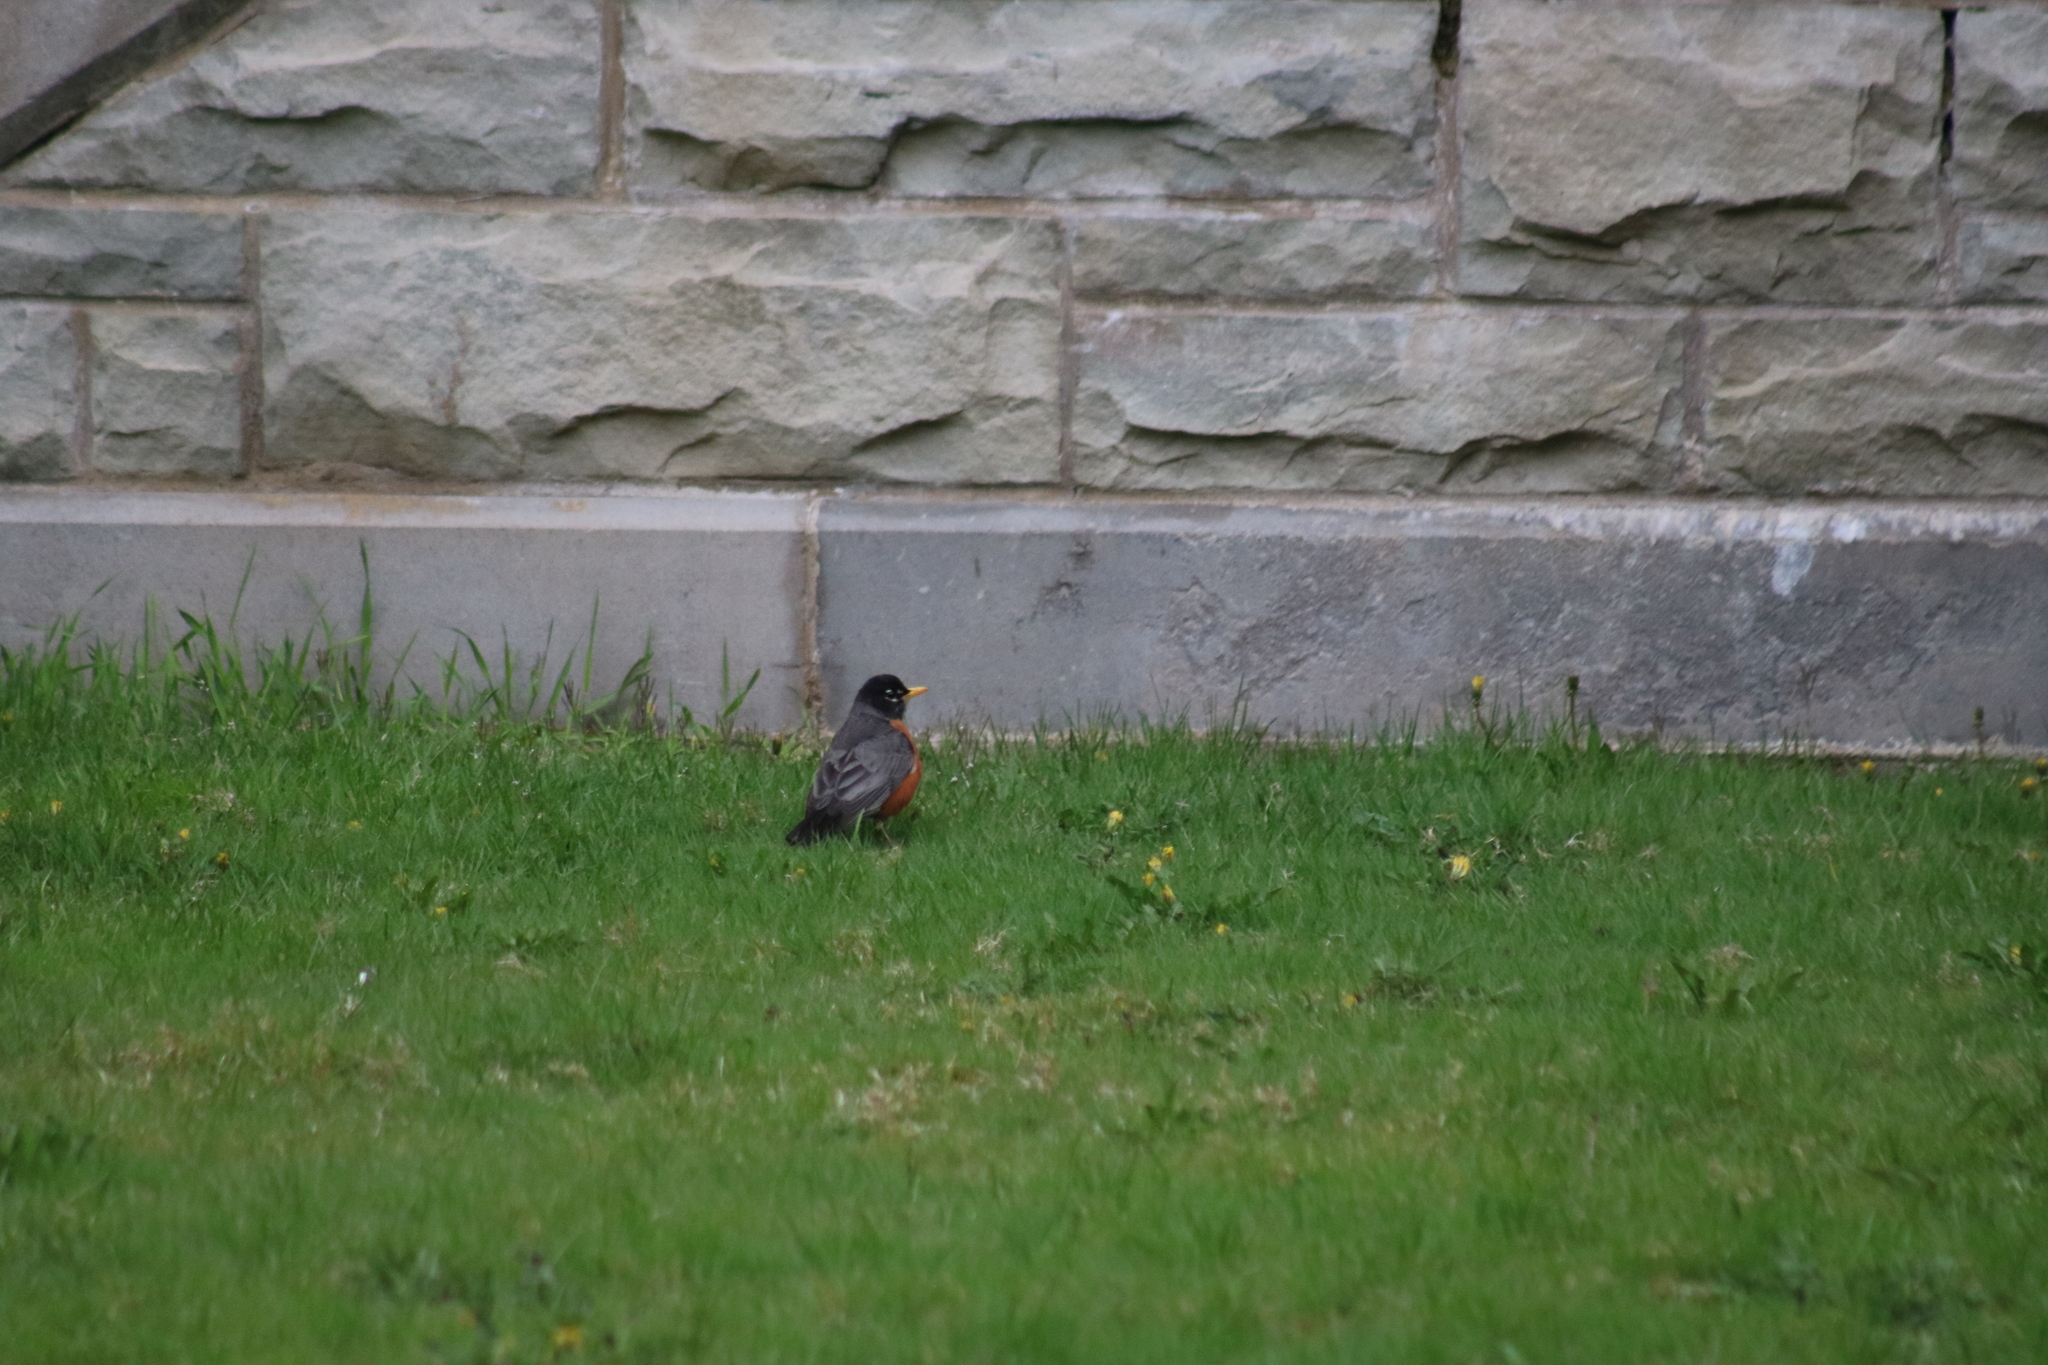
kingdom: Animalia
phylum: Chordata
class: Aves
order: Passeriformes
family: Turdidae
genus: Turdus
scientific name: Turdus migratorius
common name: American robin
